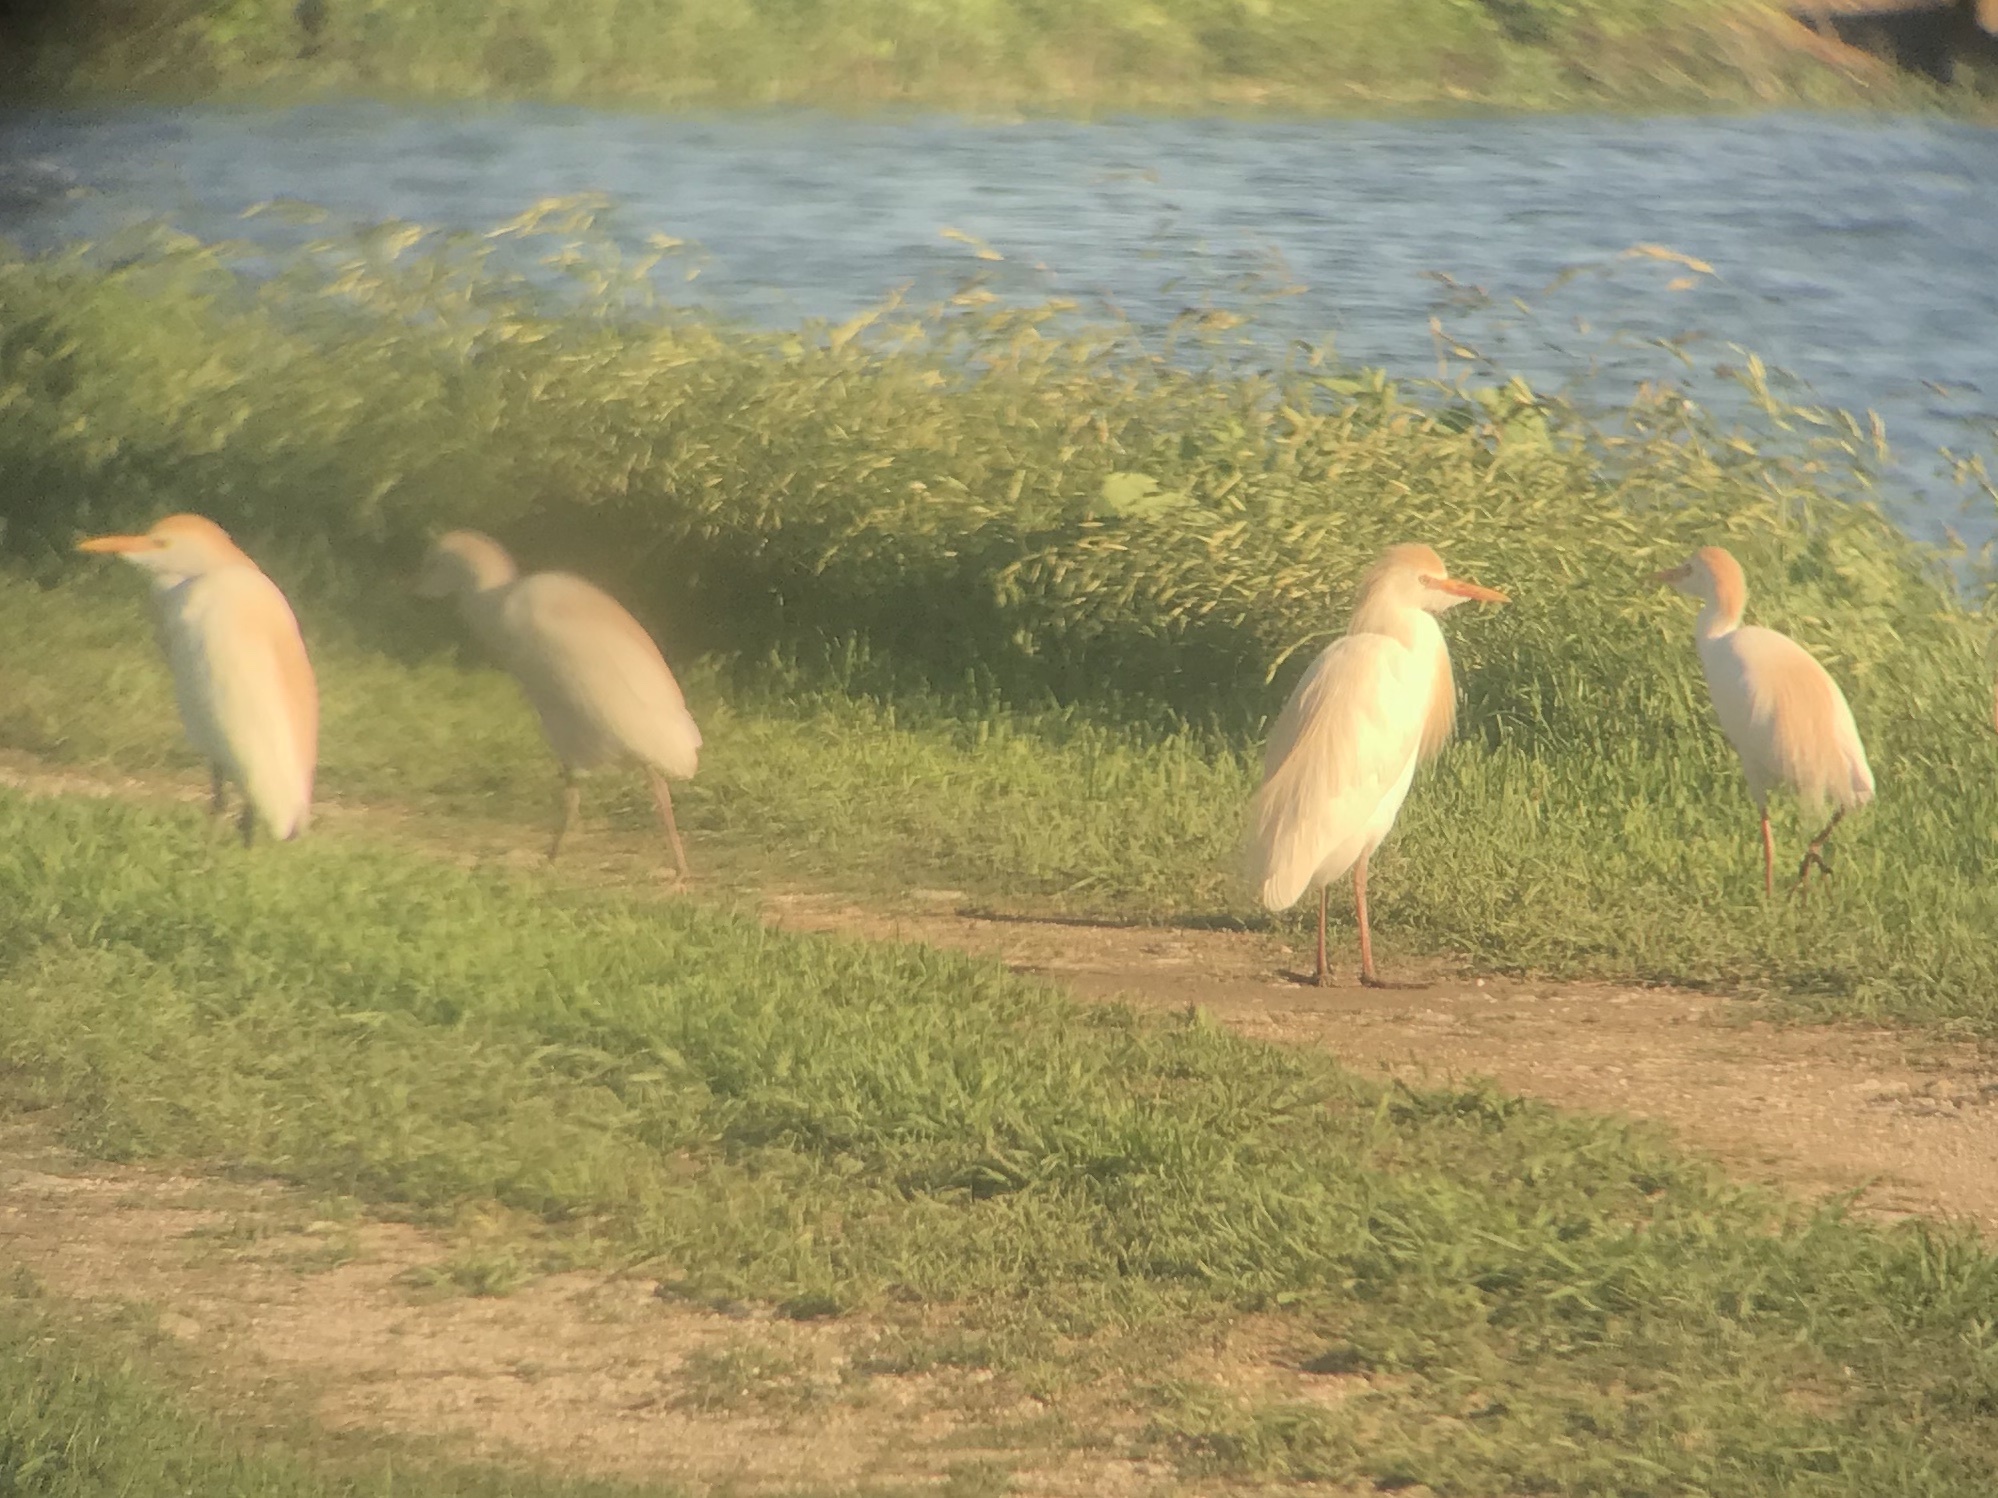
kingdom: Animalia
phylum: Chordata
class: Aves
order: Pelecaniformes
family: Ardeidae
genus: Bubulcus
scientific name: Bubulcus ibis
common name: Cattle egret
